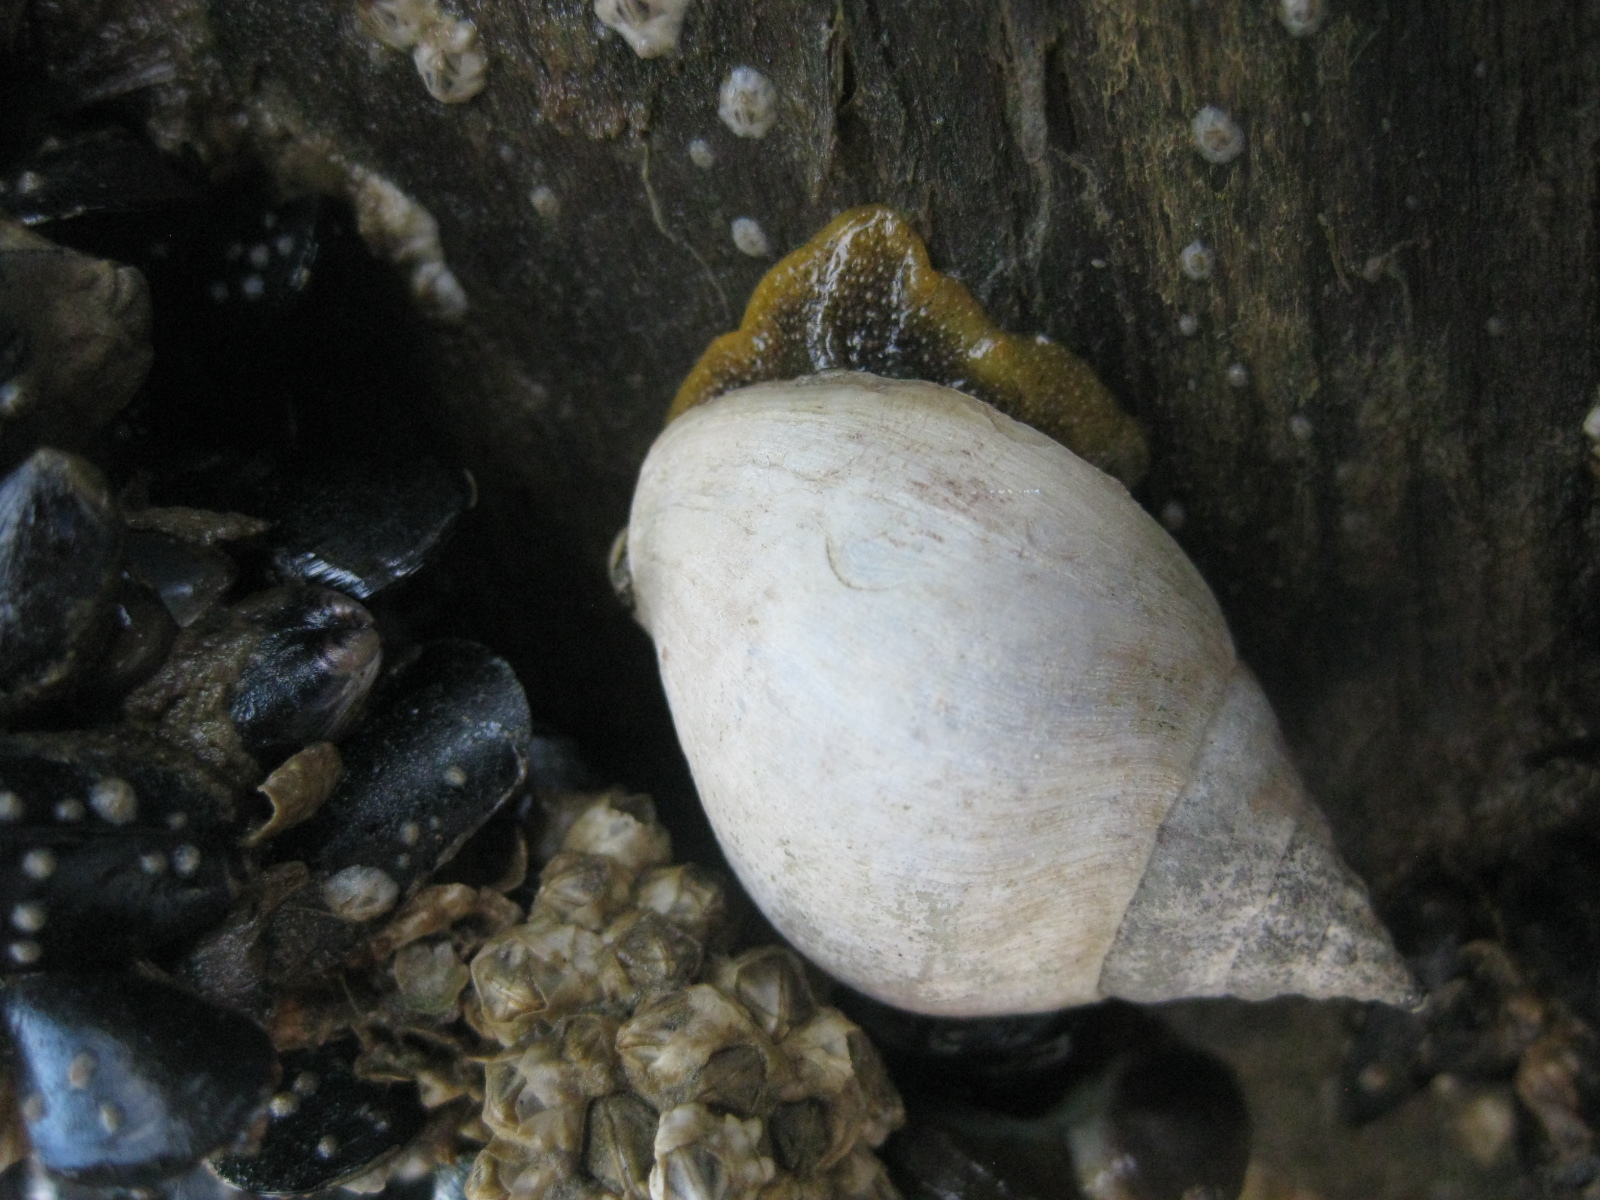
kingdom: Animalia
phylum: Mollusca
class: Gastropoda
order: Neogastropoda
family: Cominellidae
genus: Cominella
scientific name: Cominella adspersa
